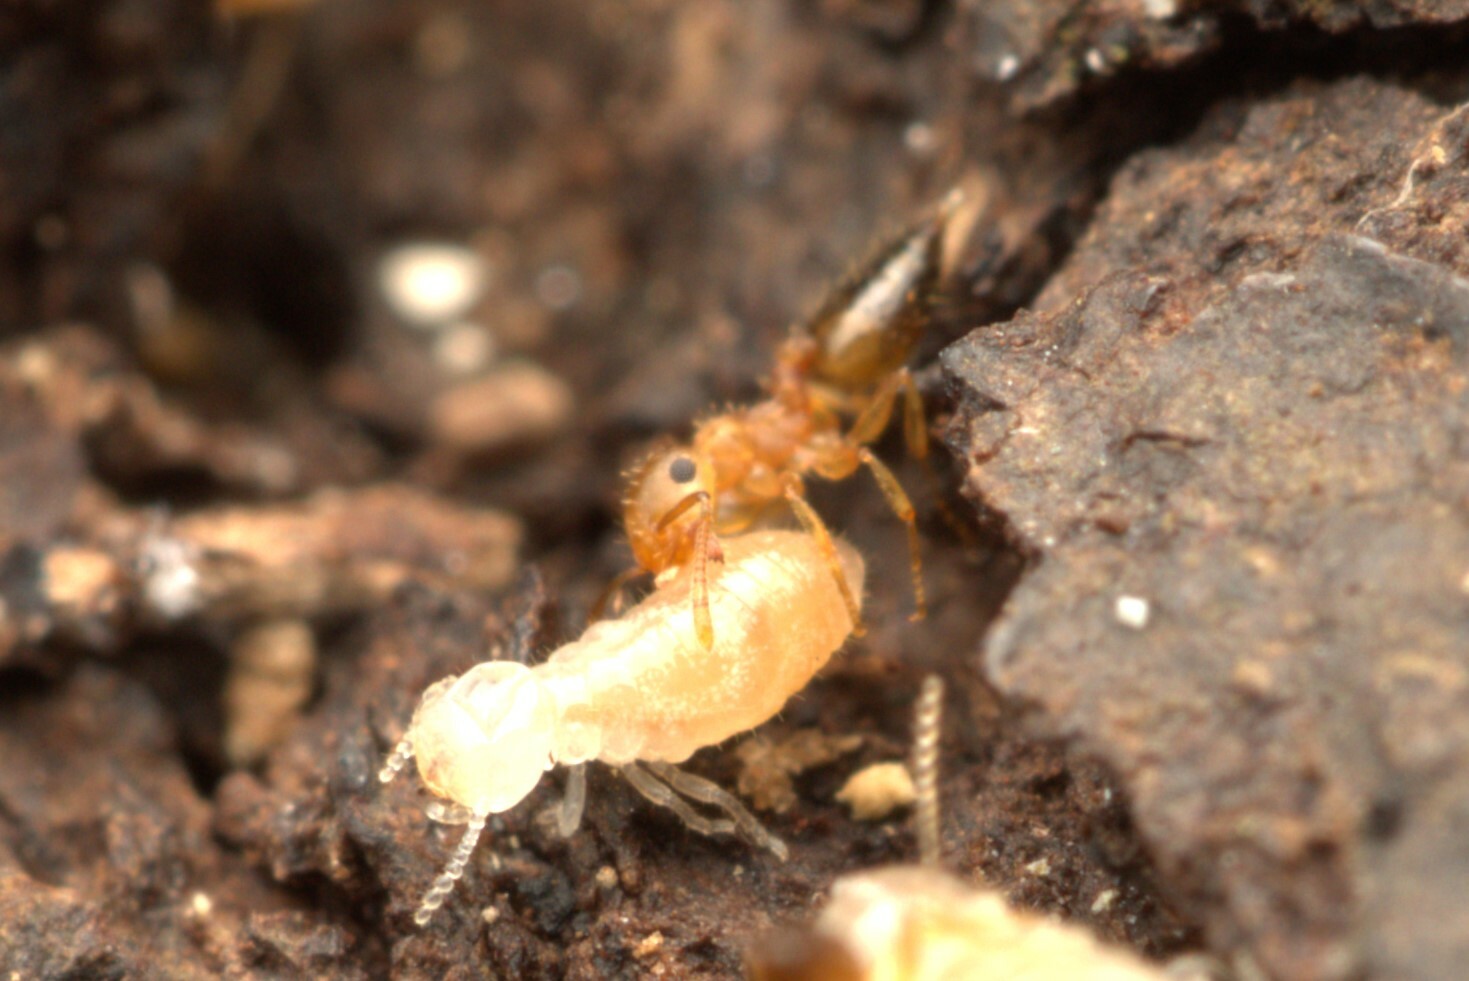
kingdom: Animalia
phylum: Arthropoda
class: Insecta
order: Hymenoptera
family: Formicidae
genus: Crematogaster
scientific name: Crematogaster steinheili
